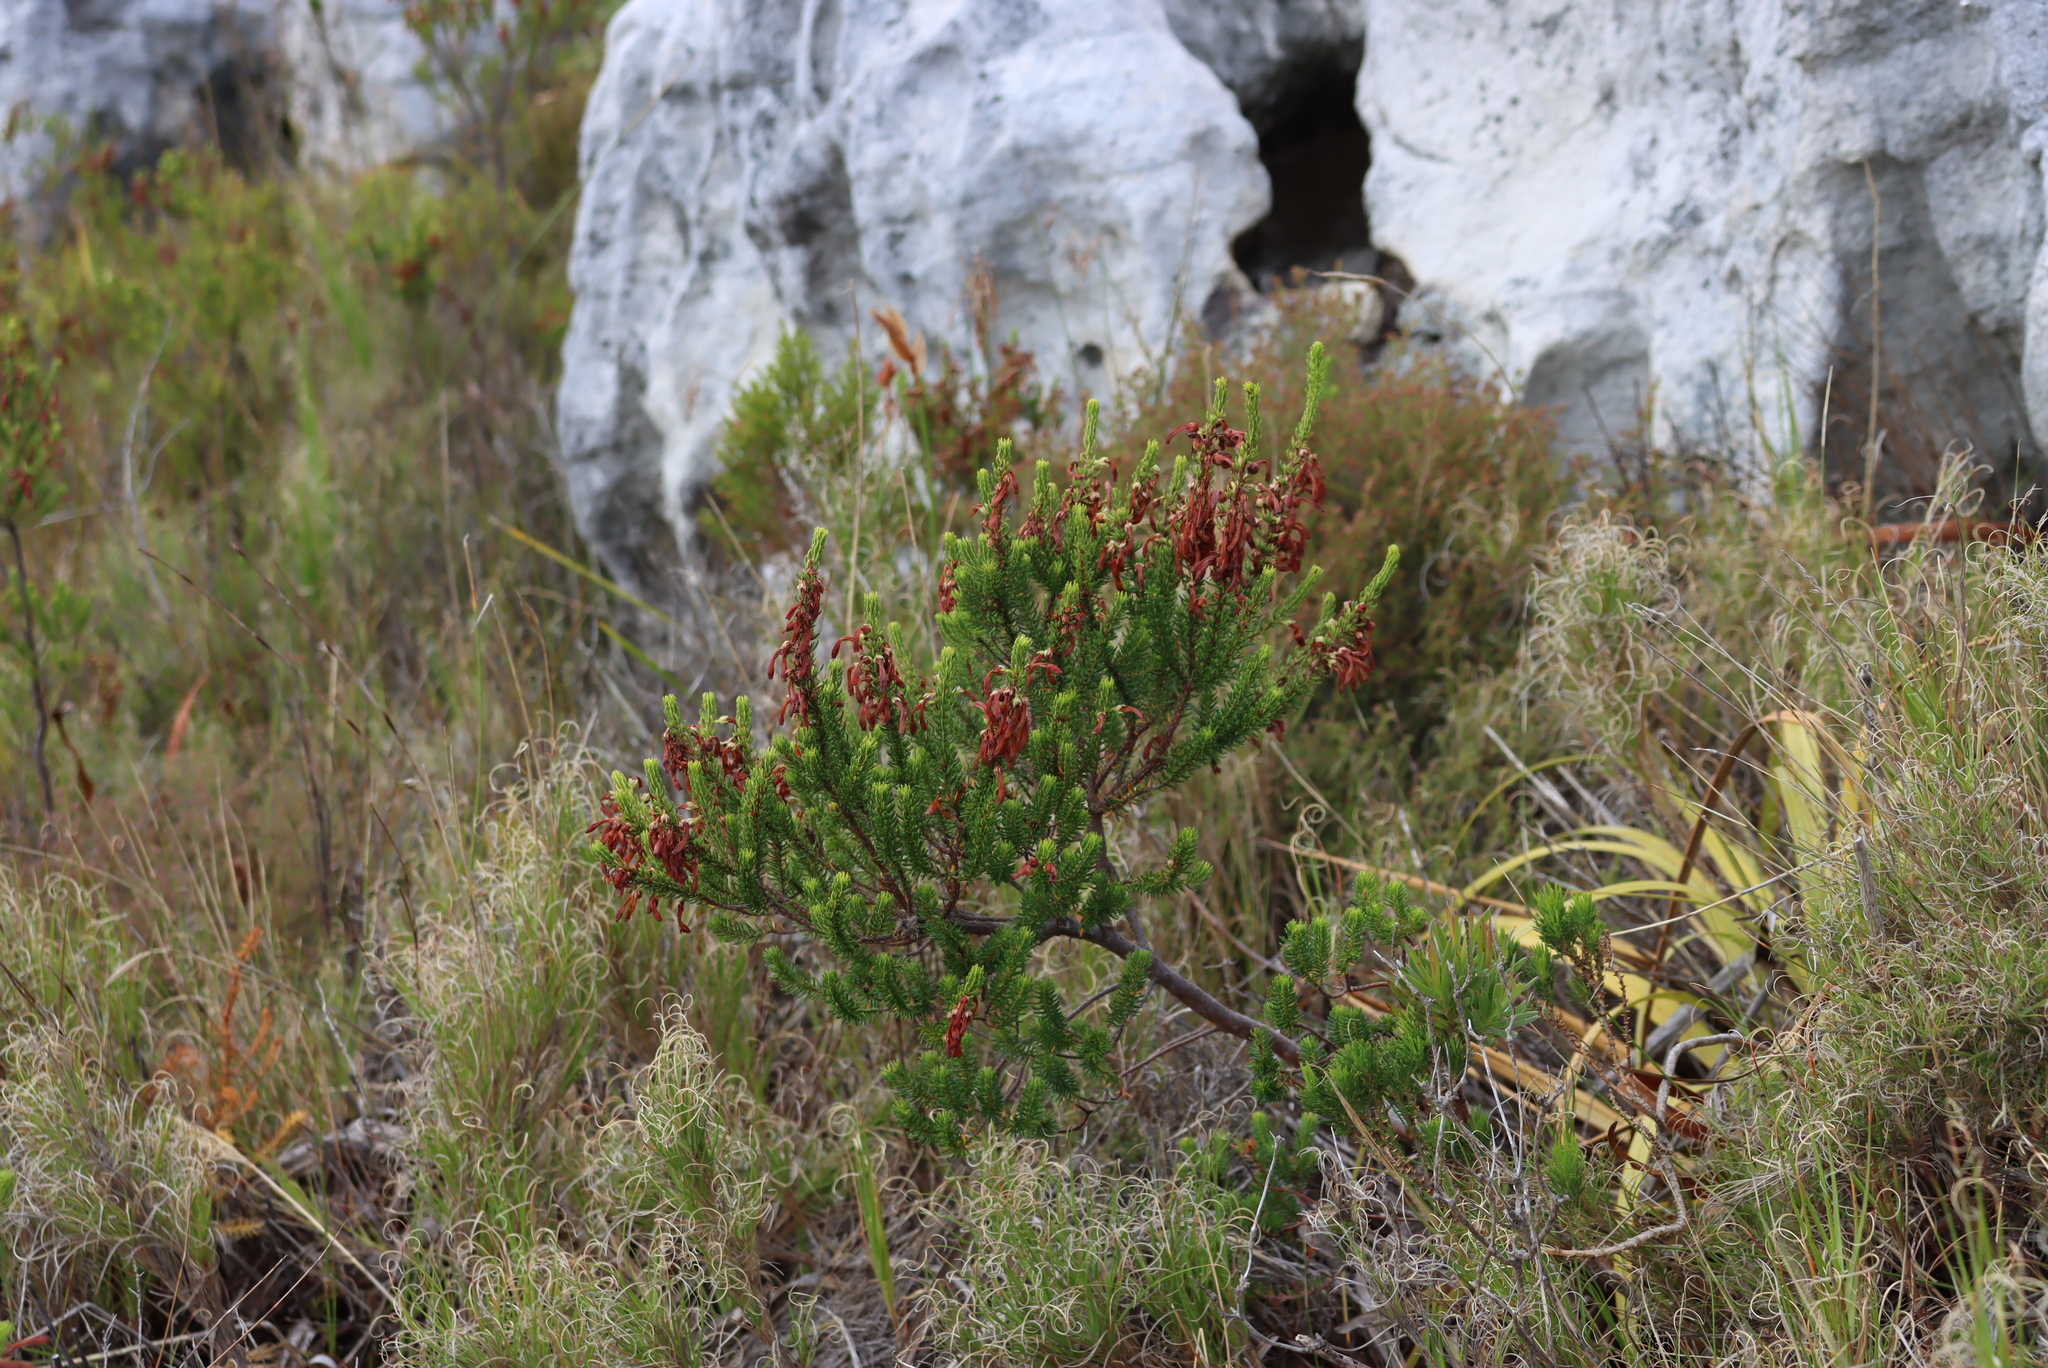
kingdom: Plantae
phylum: Tracheophyta
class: Magnoliopsida
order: Ericales
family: Ericaceae
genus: Erica
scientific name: Erica mammosa
